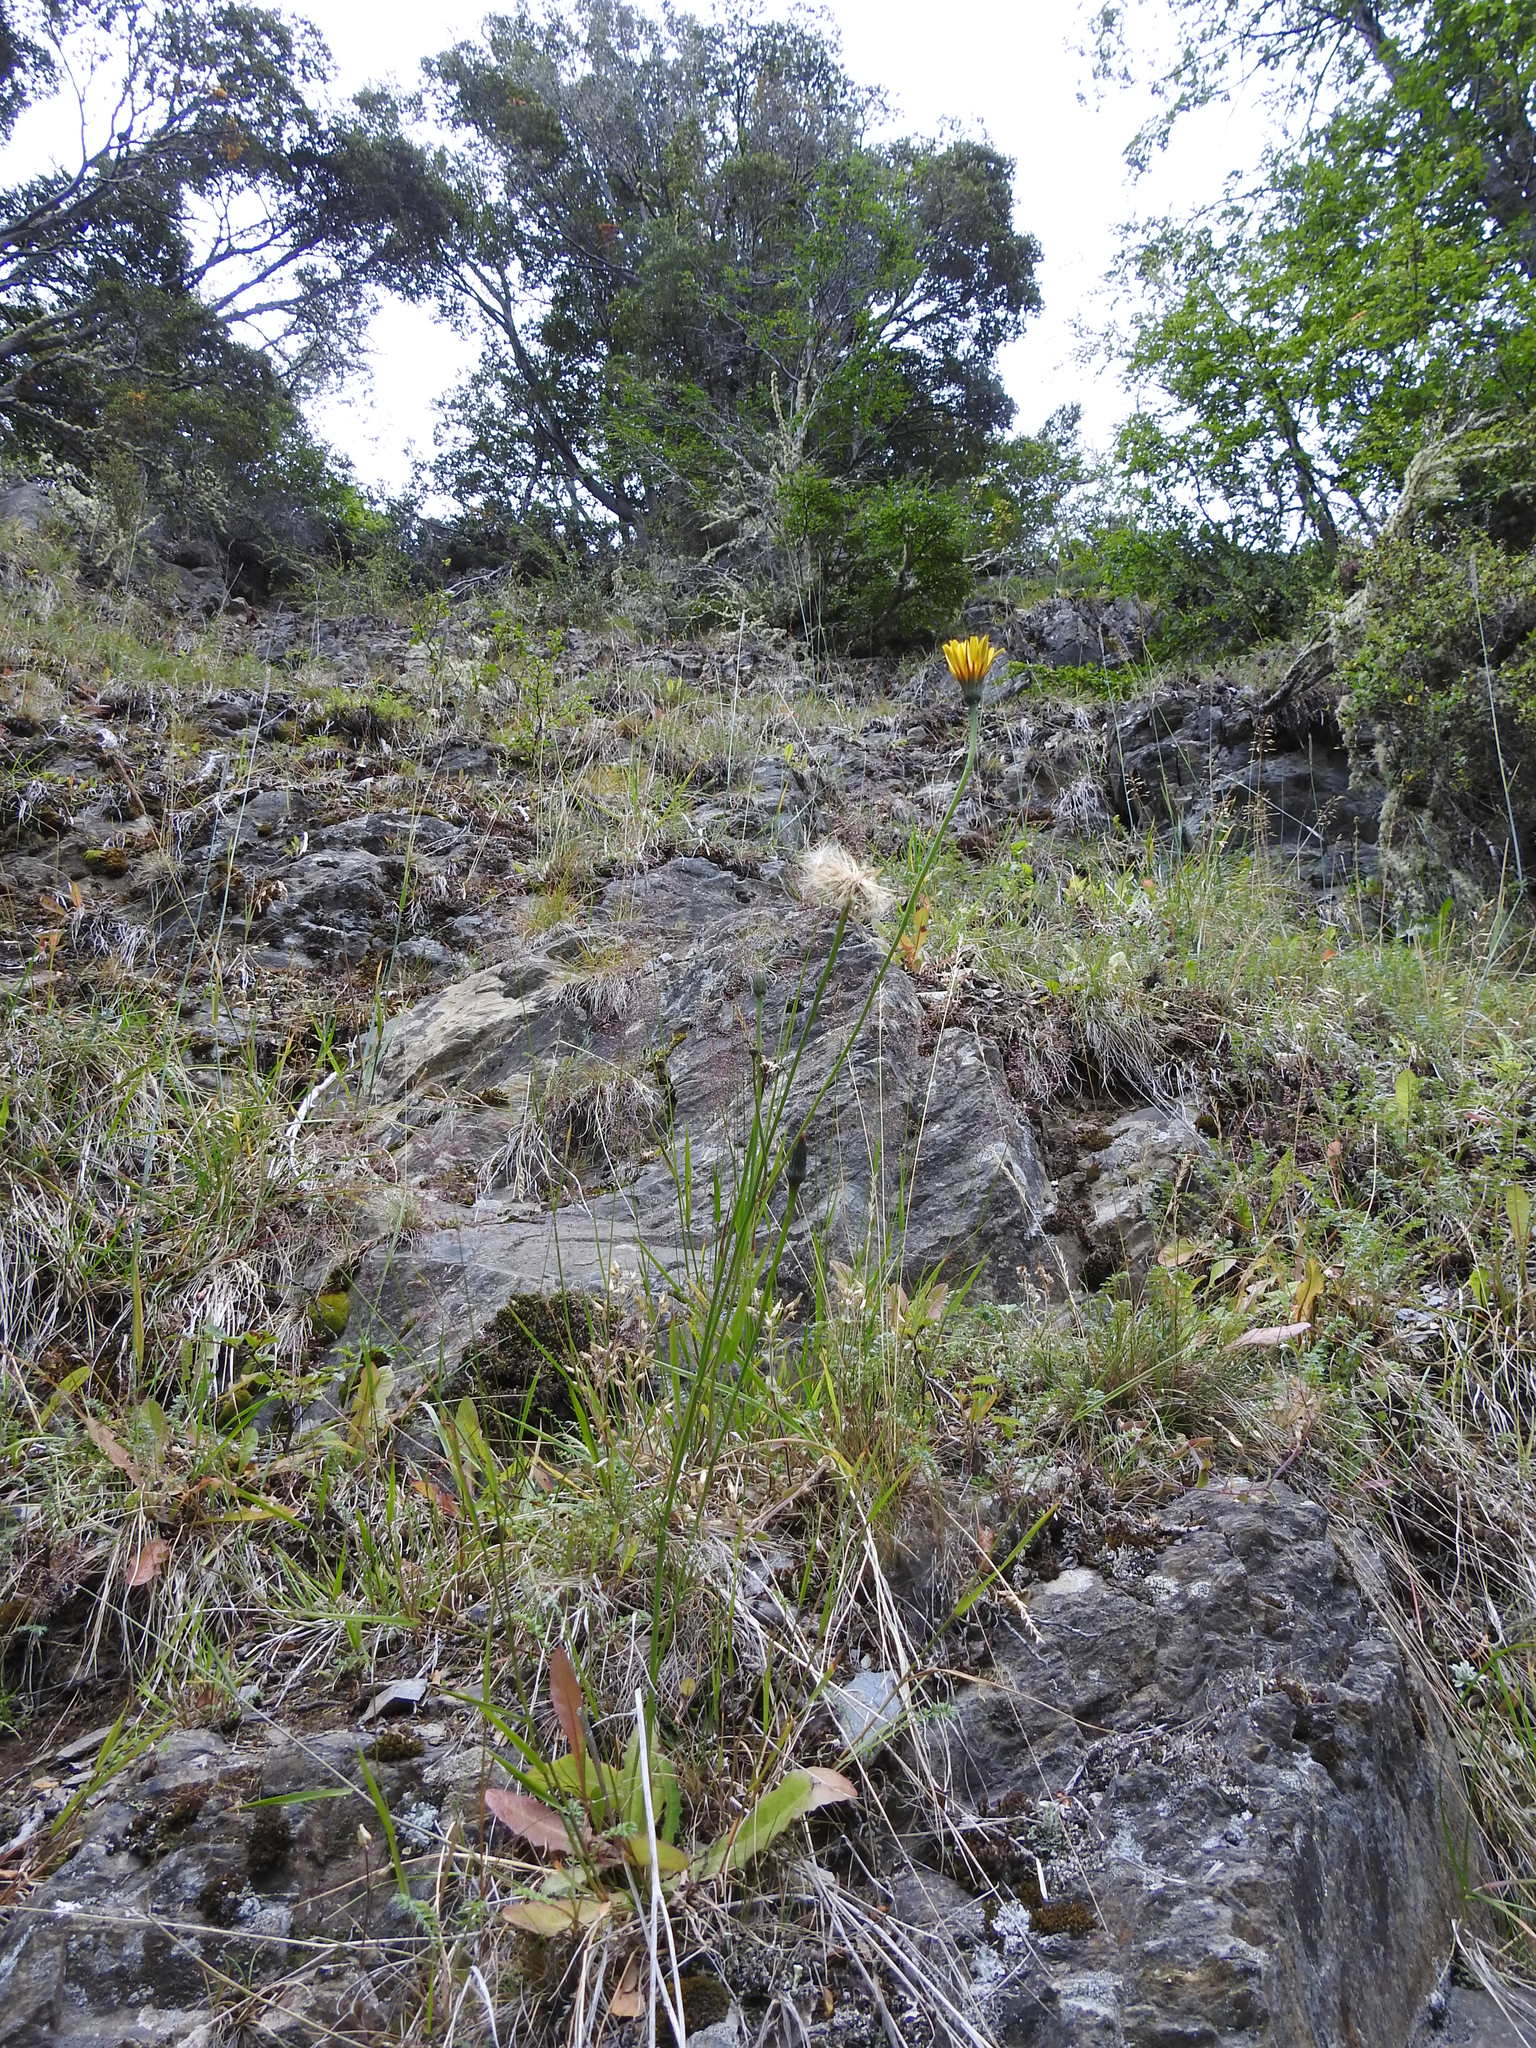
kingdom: Plantae
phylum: Tracheophyta
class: Magnoliopsida
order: Asterales
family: Asteraceae
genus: Hypochaeris
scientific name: Hypochaeris radicata
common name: Flatweed
